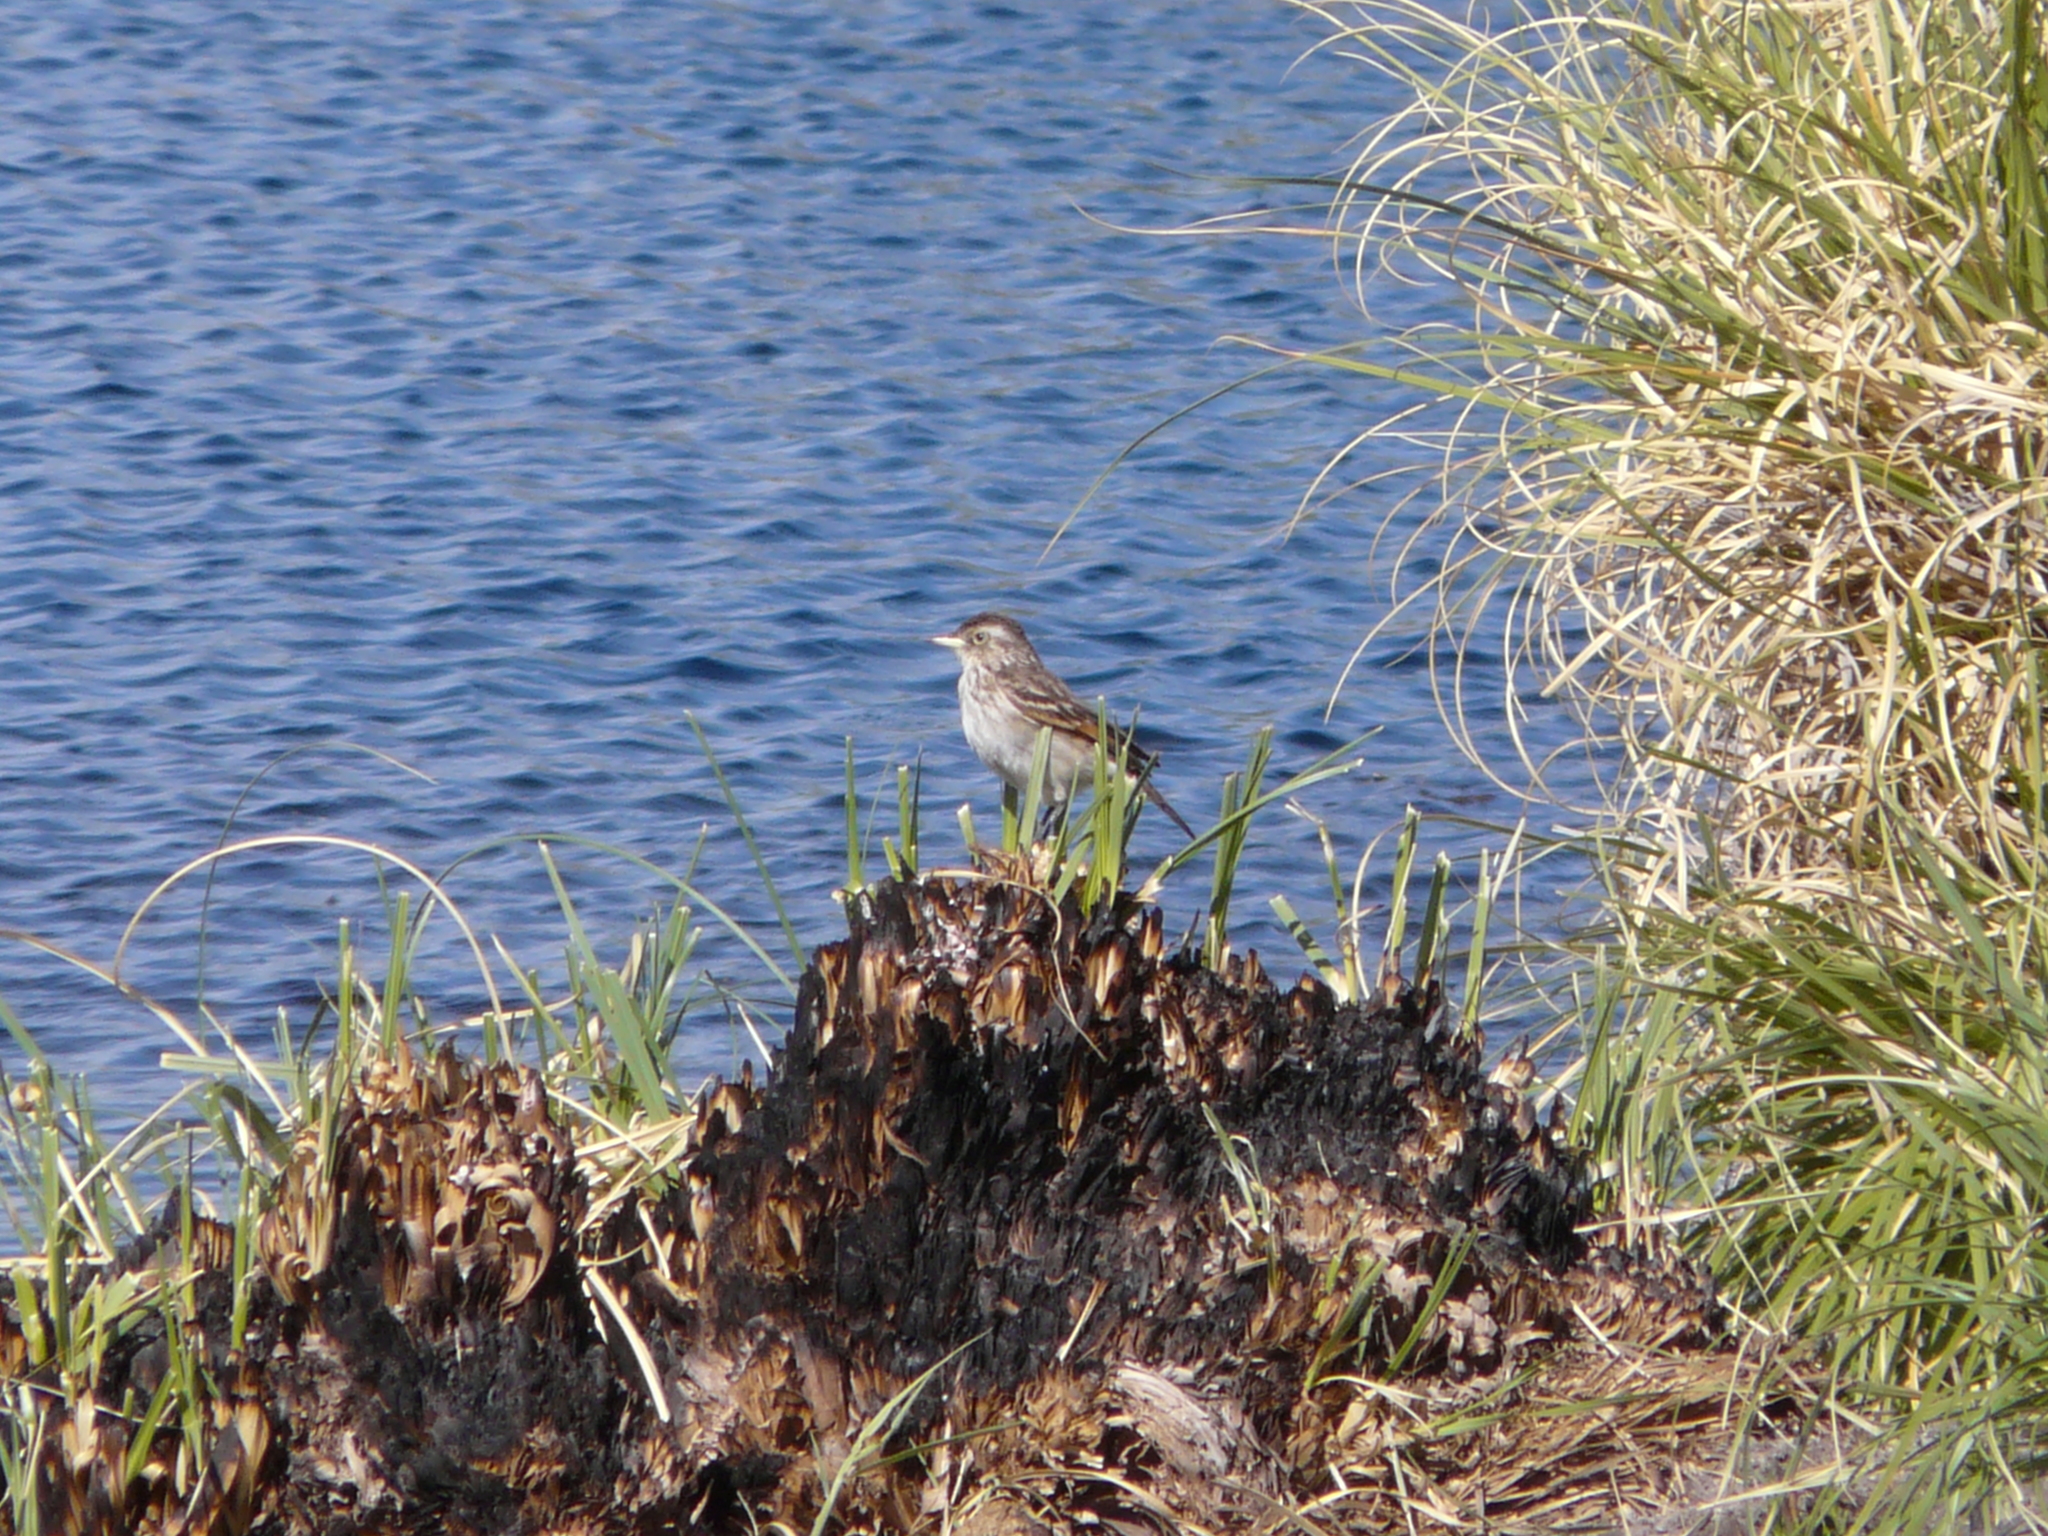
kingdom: Animalia
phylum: Chordata
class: Aves
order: Passeriformes
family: Tyrannidae
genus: Hymenops
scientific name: Hymenops perspicillatus
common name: Spectacled tyrant
